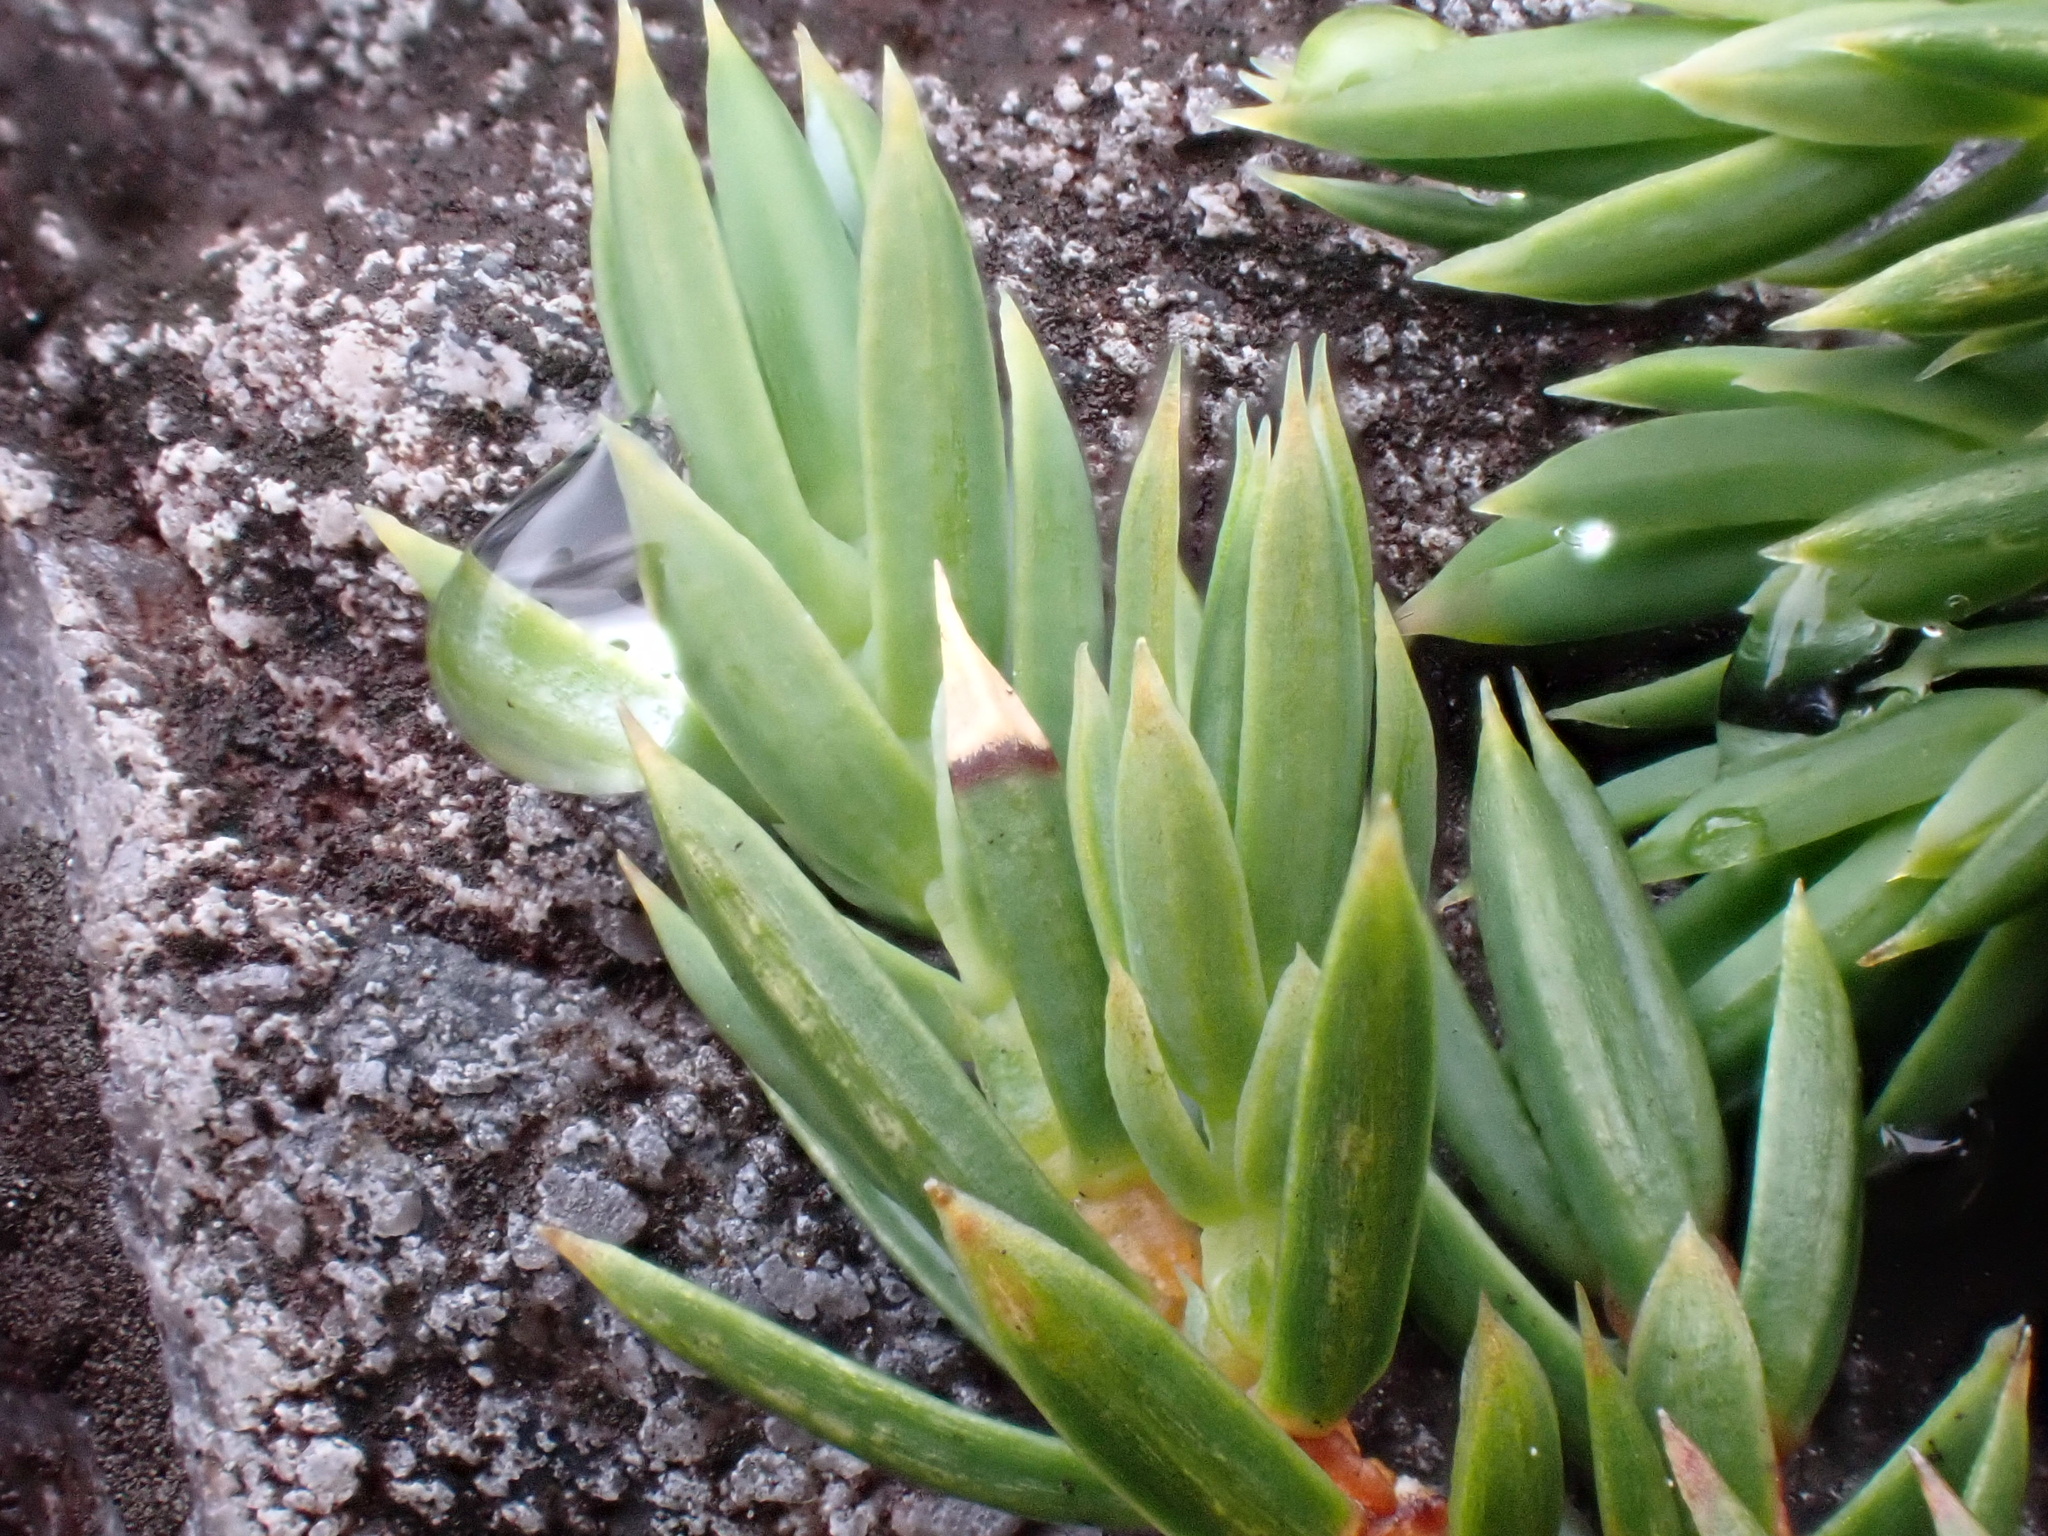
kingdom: Plantae
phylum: Tracheophyta
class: Pinopsida
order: Pinales
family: Cupressaceae
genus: Juniperus
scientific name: Juniperus communis
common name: Common juniper
